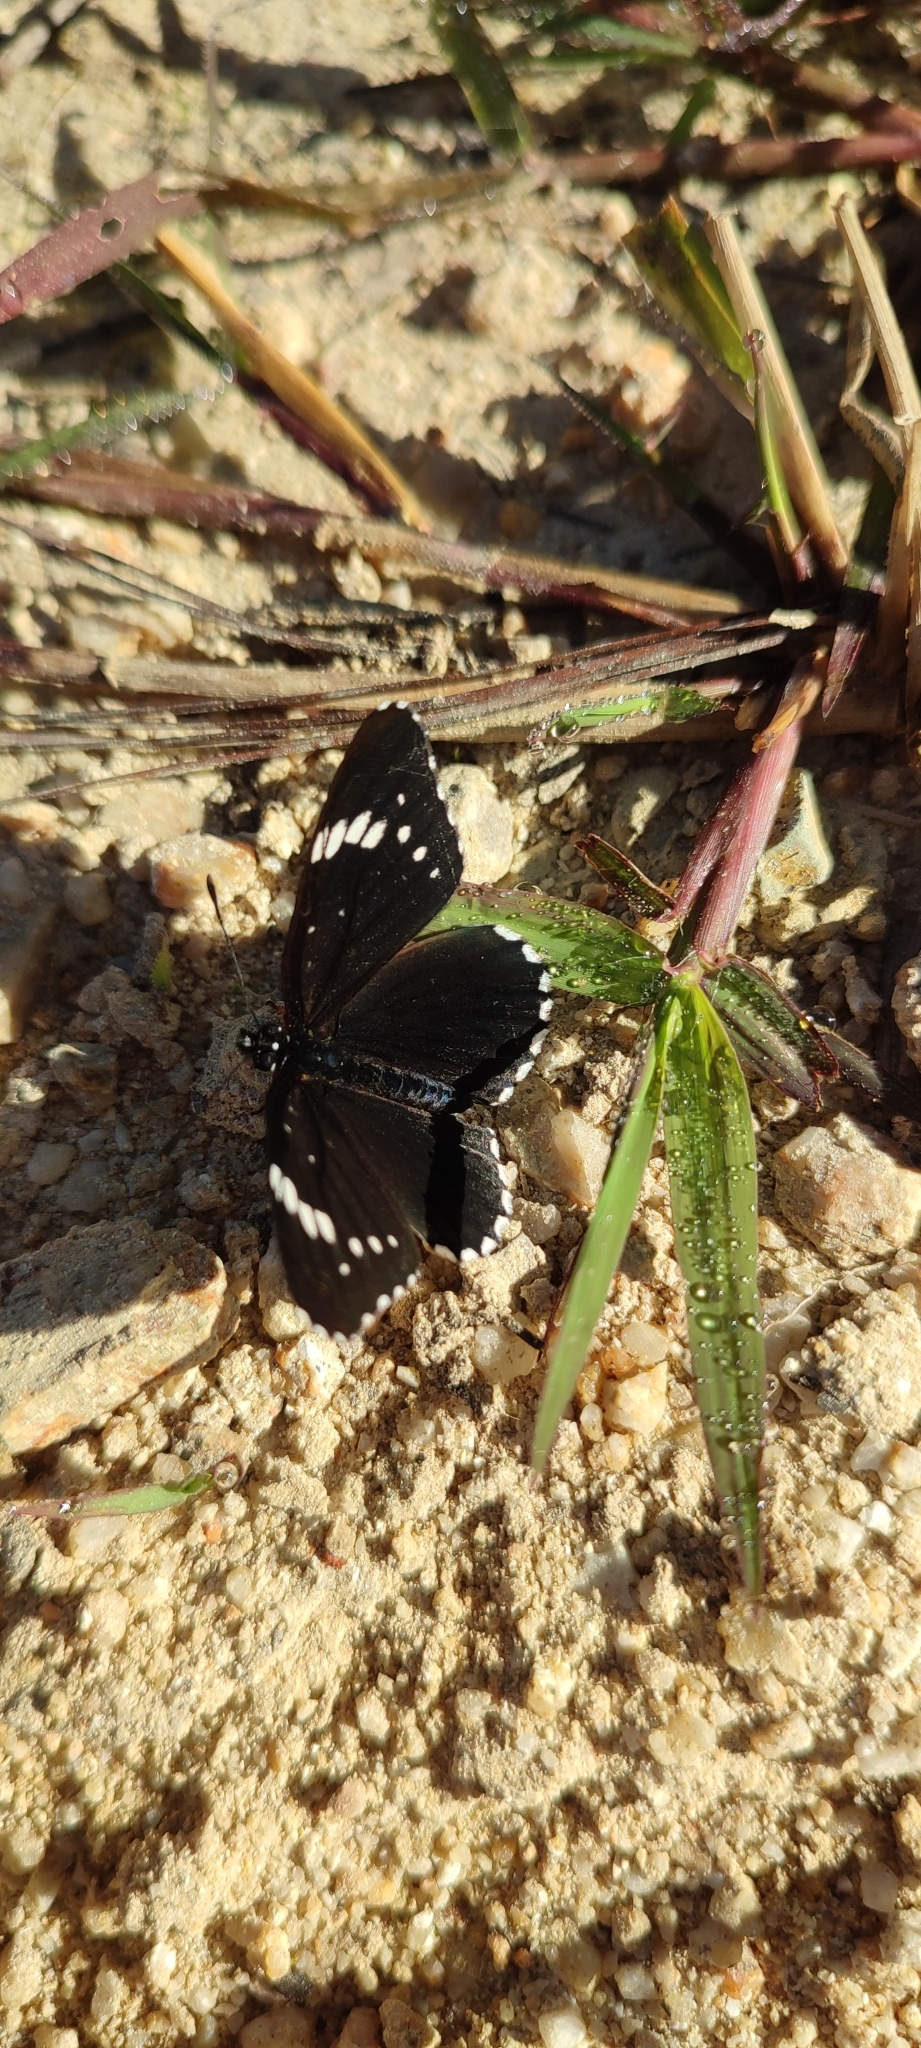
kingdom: Animalia
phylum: Arthropoda
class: Insecta
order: Lepidoptera
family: Nymphalidae
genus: Chlosyne
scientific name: Chlosyne hippodrome
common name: Simple patch
